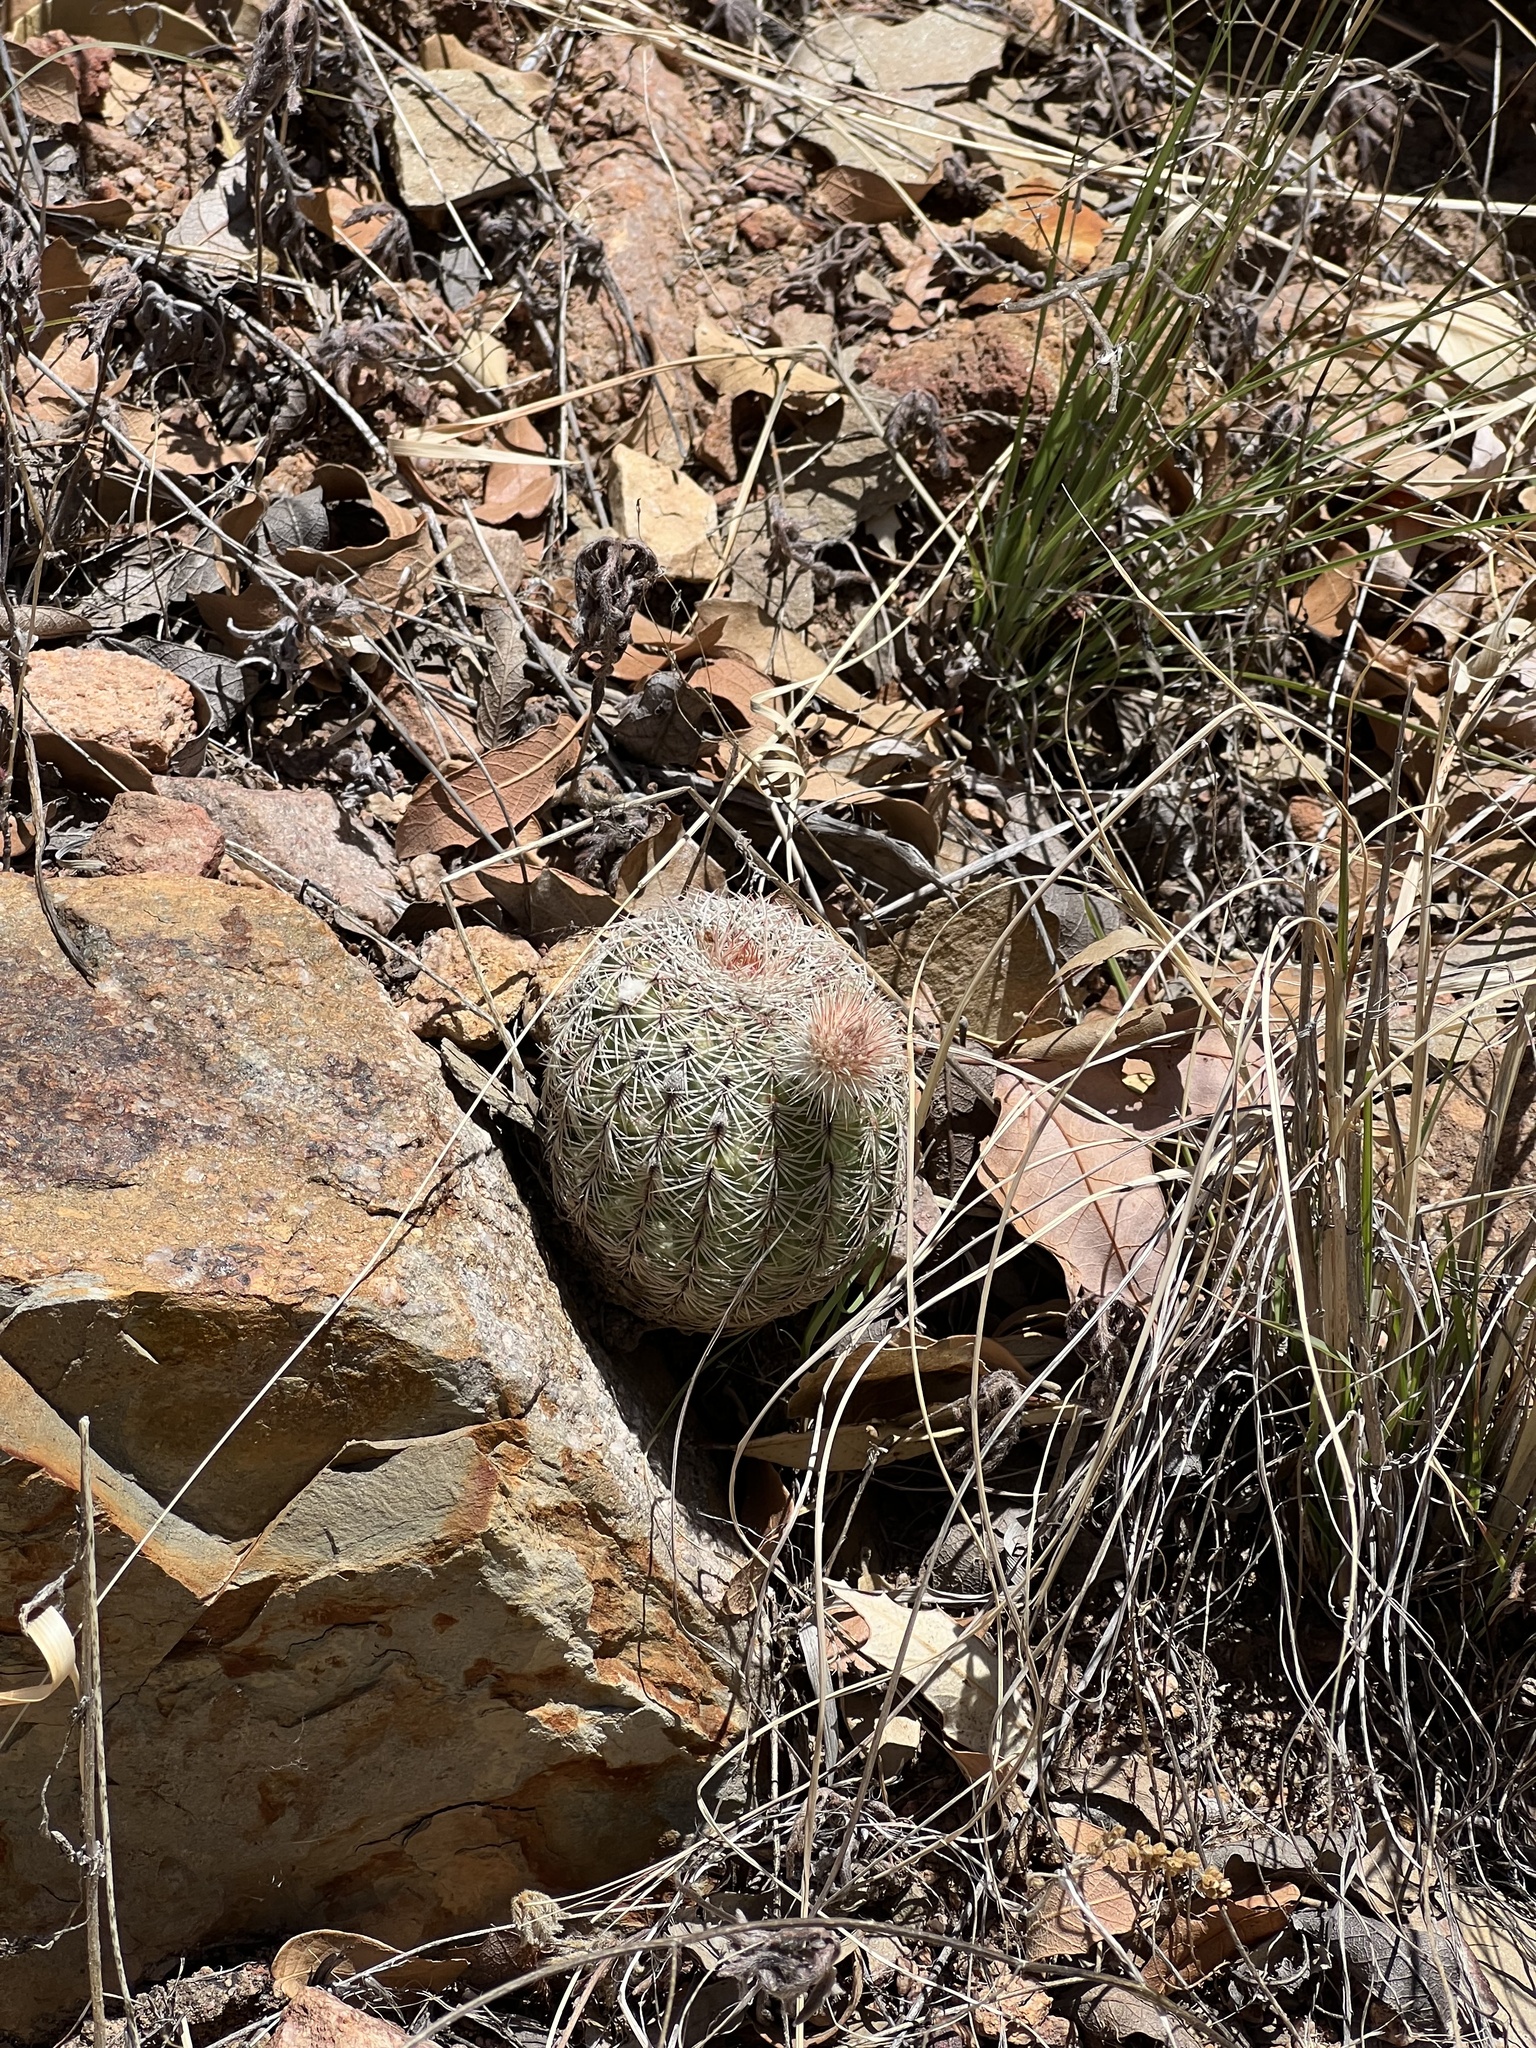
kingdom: Plantae
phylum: Tracheophyta
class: Magnoliopsida
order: Caryophyllales
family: Cactaceae
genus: Echinocereus
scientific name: Echinocereus rigidissimus
